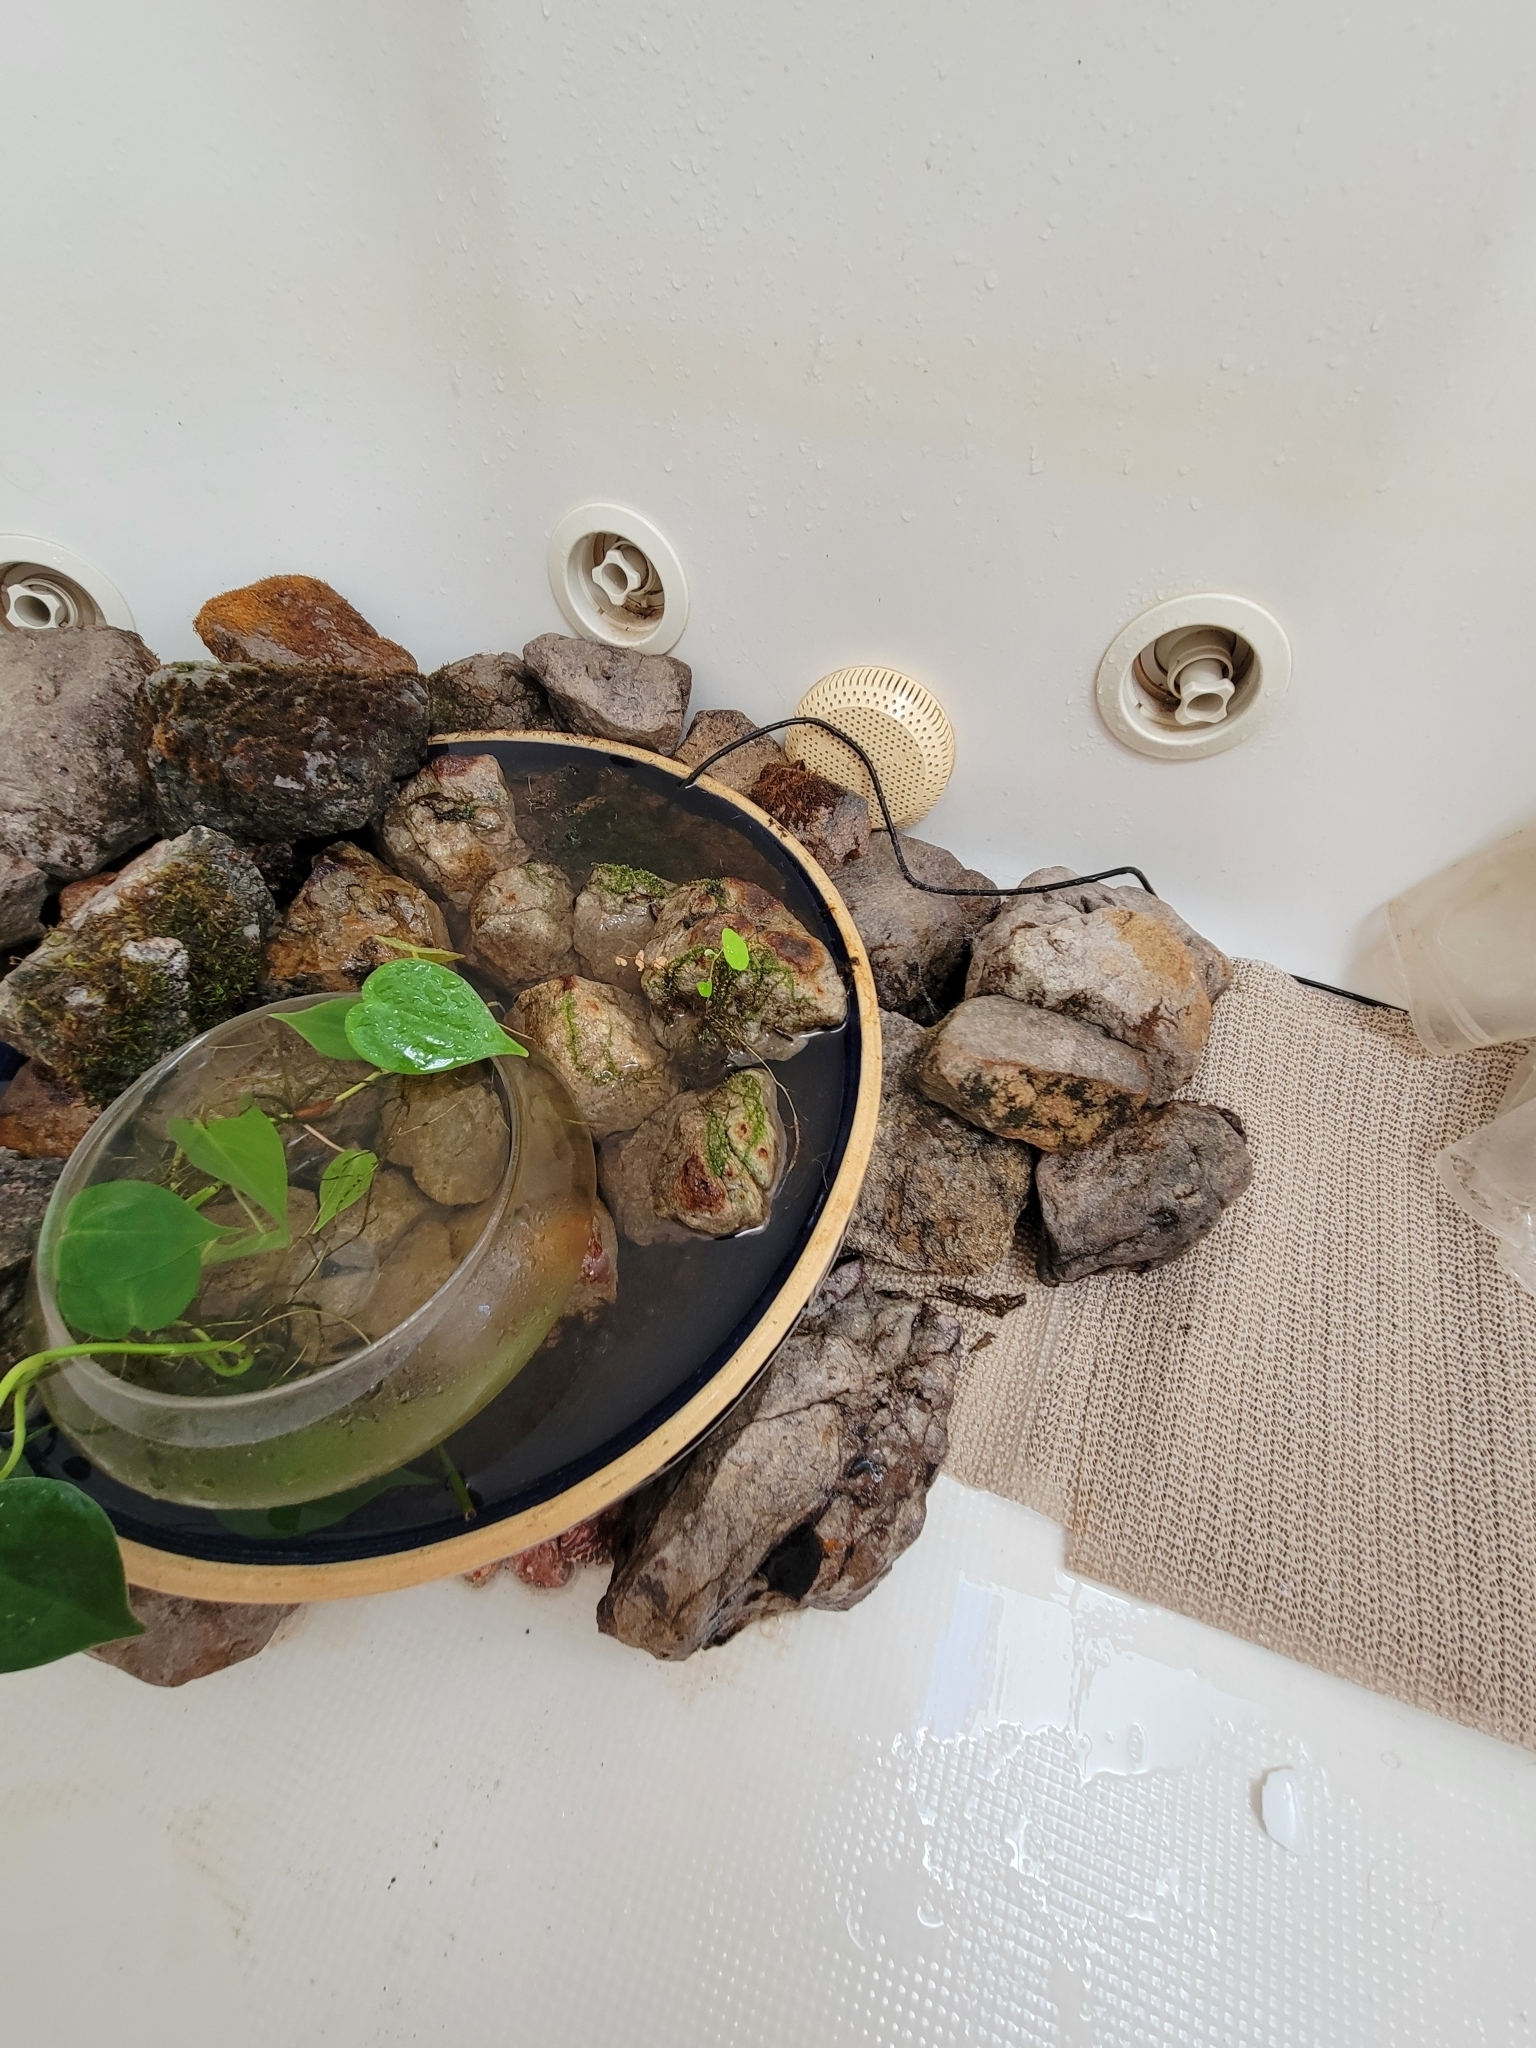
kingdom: Animalia
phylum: Arthropoda
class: Arachnida
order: Araneae
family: Pholcidae
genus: Pholcus
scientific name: Pholcus
